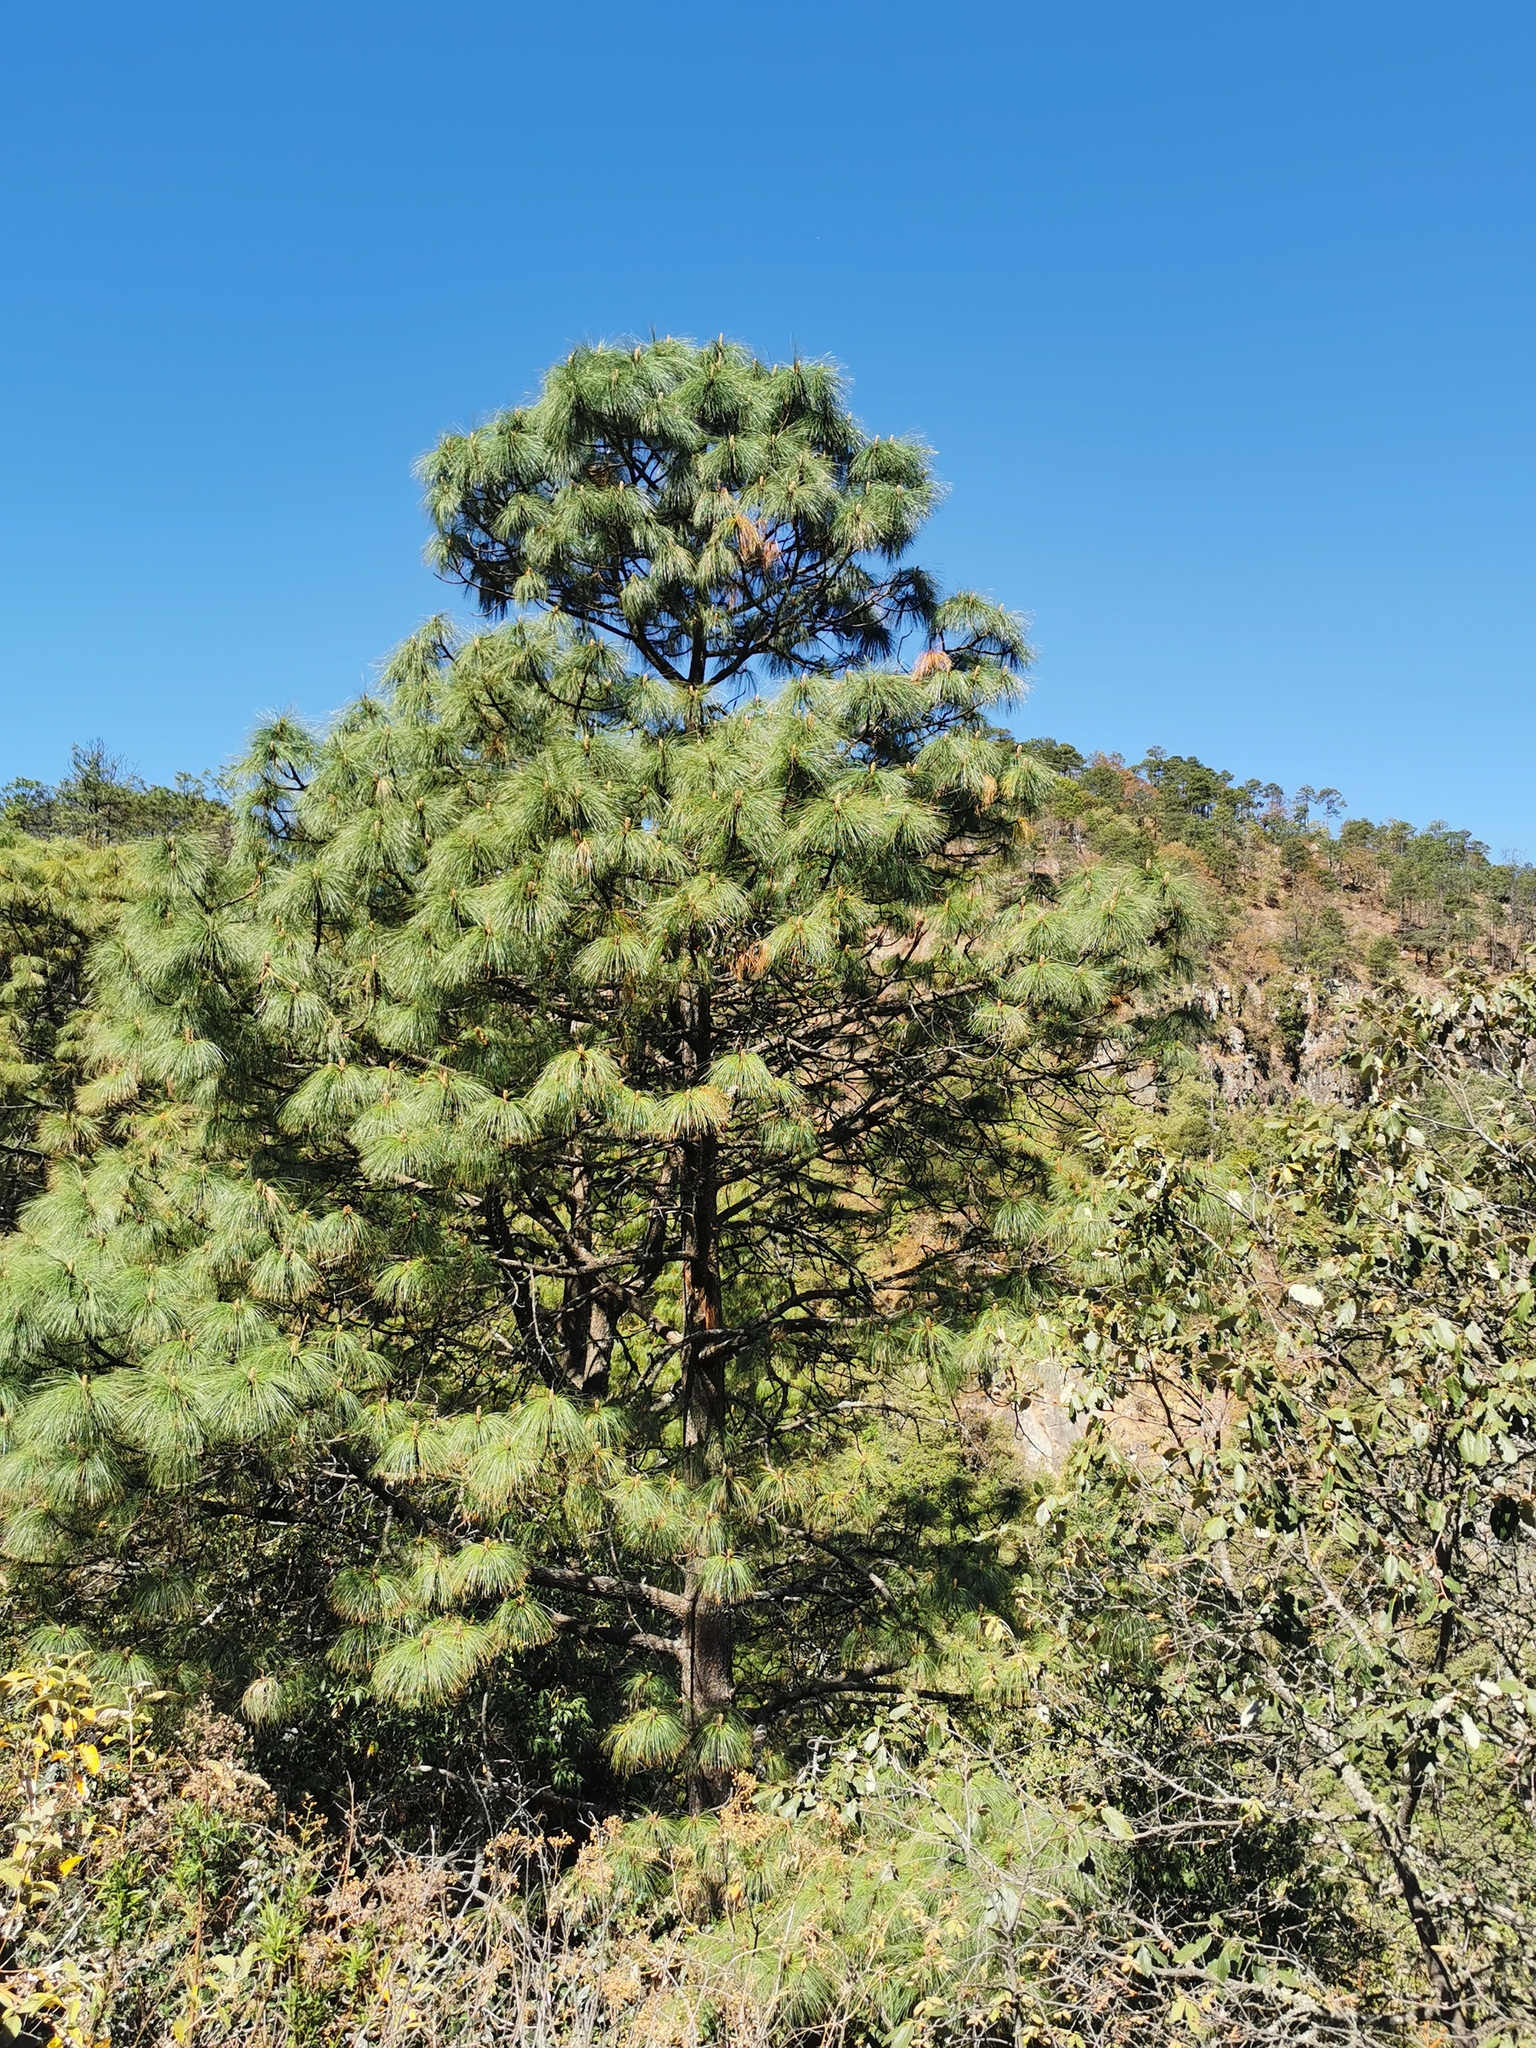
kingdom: Plantae
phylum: Tracheophyta
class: Pinopsida
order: Pinales
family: Pinaceae
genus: Pinus
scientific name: Pinus devoniana
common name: Michoacan pine
